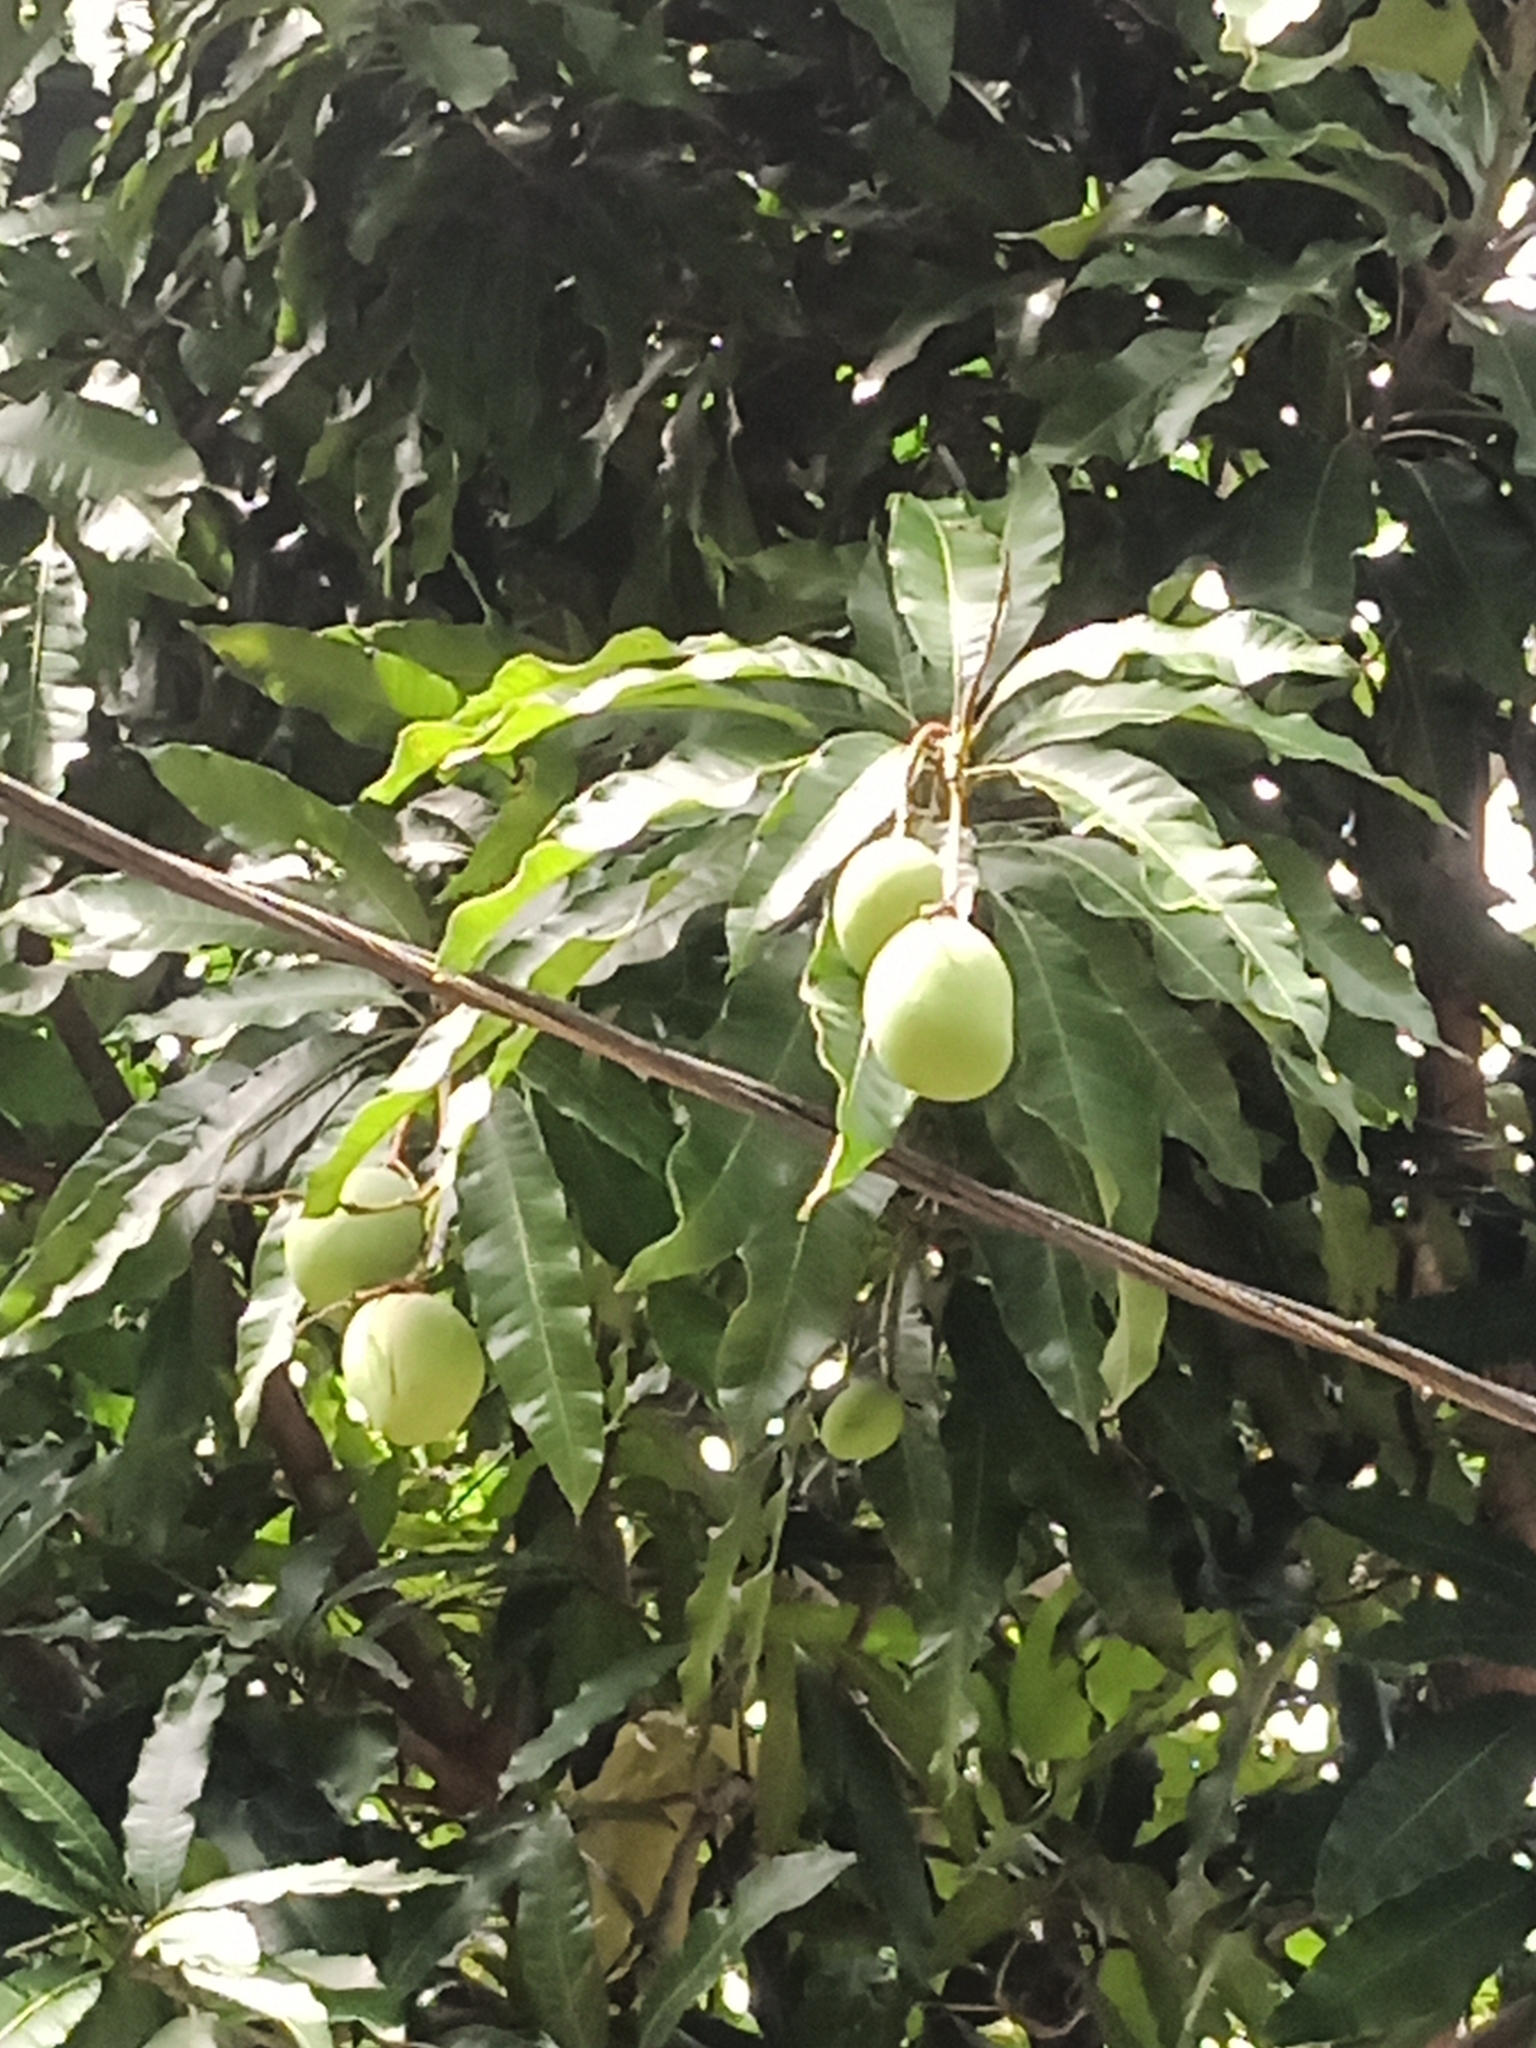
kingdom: Plantae
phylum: Tracheophyta
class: Magnoliopsida
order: Sapindales
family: Anacardiaceae
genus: Mangifera
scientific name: Mangifera indica
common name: Mango
